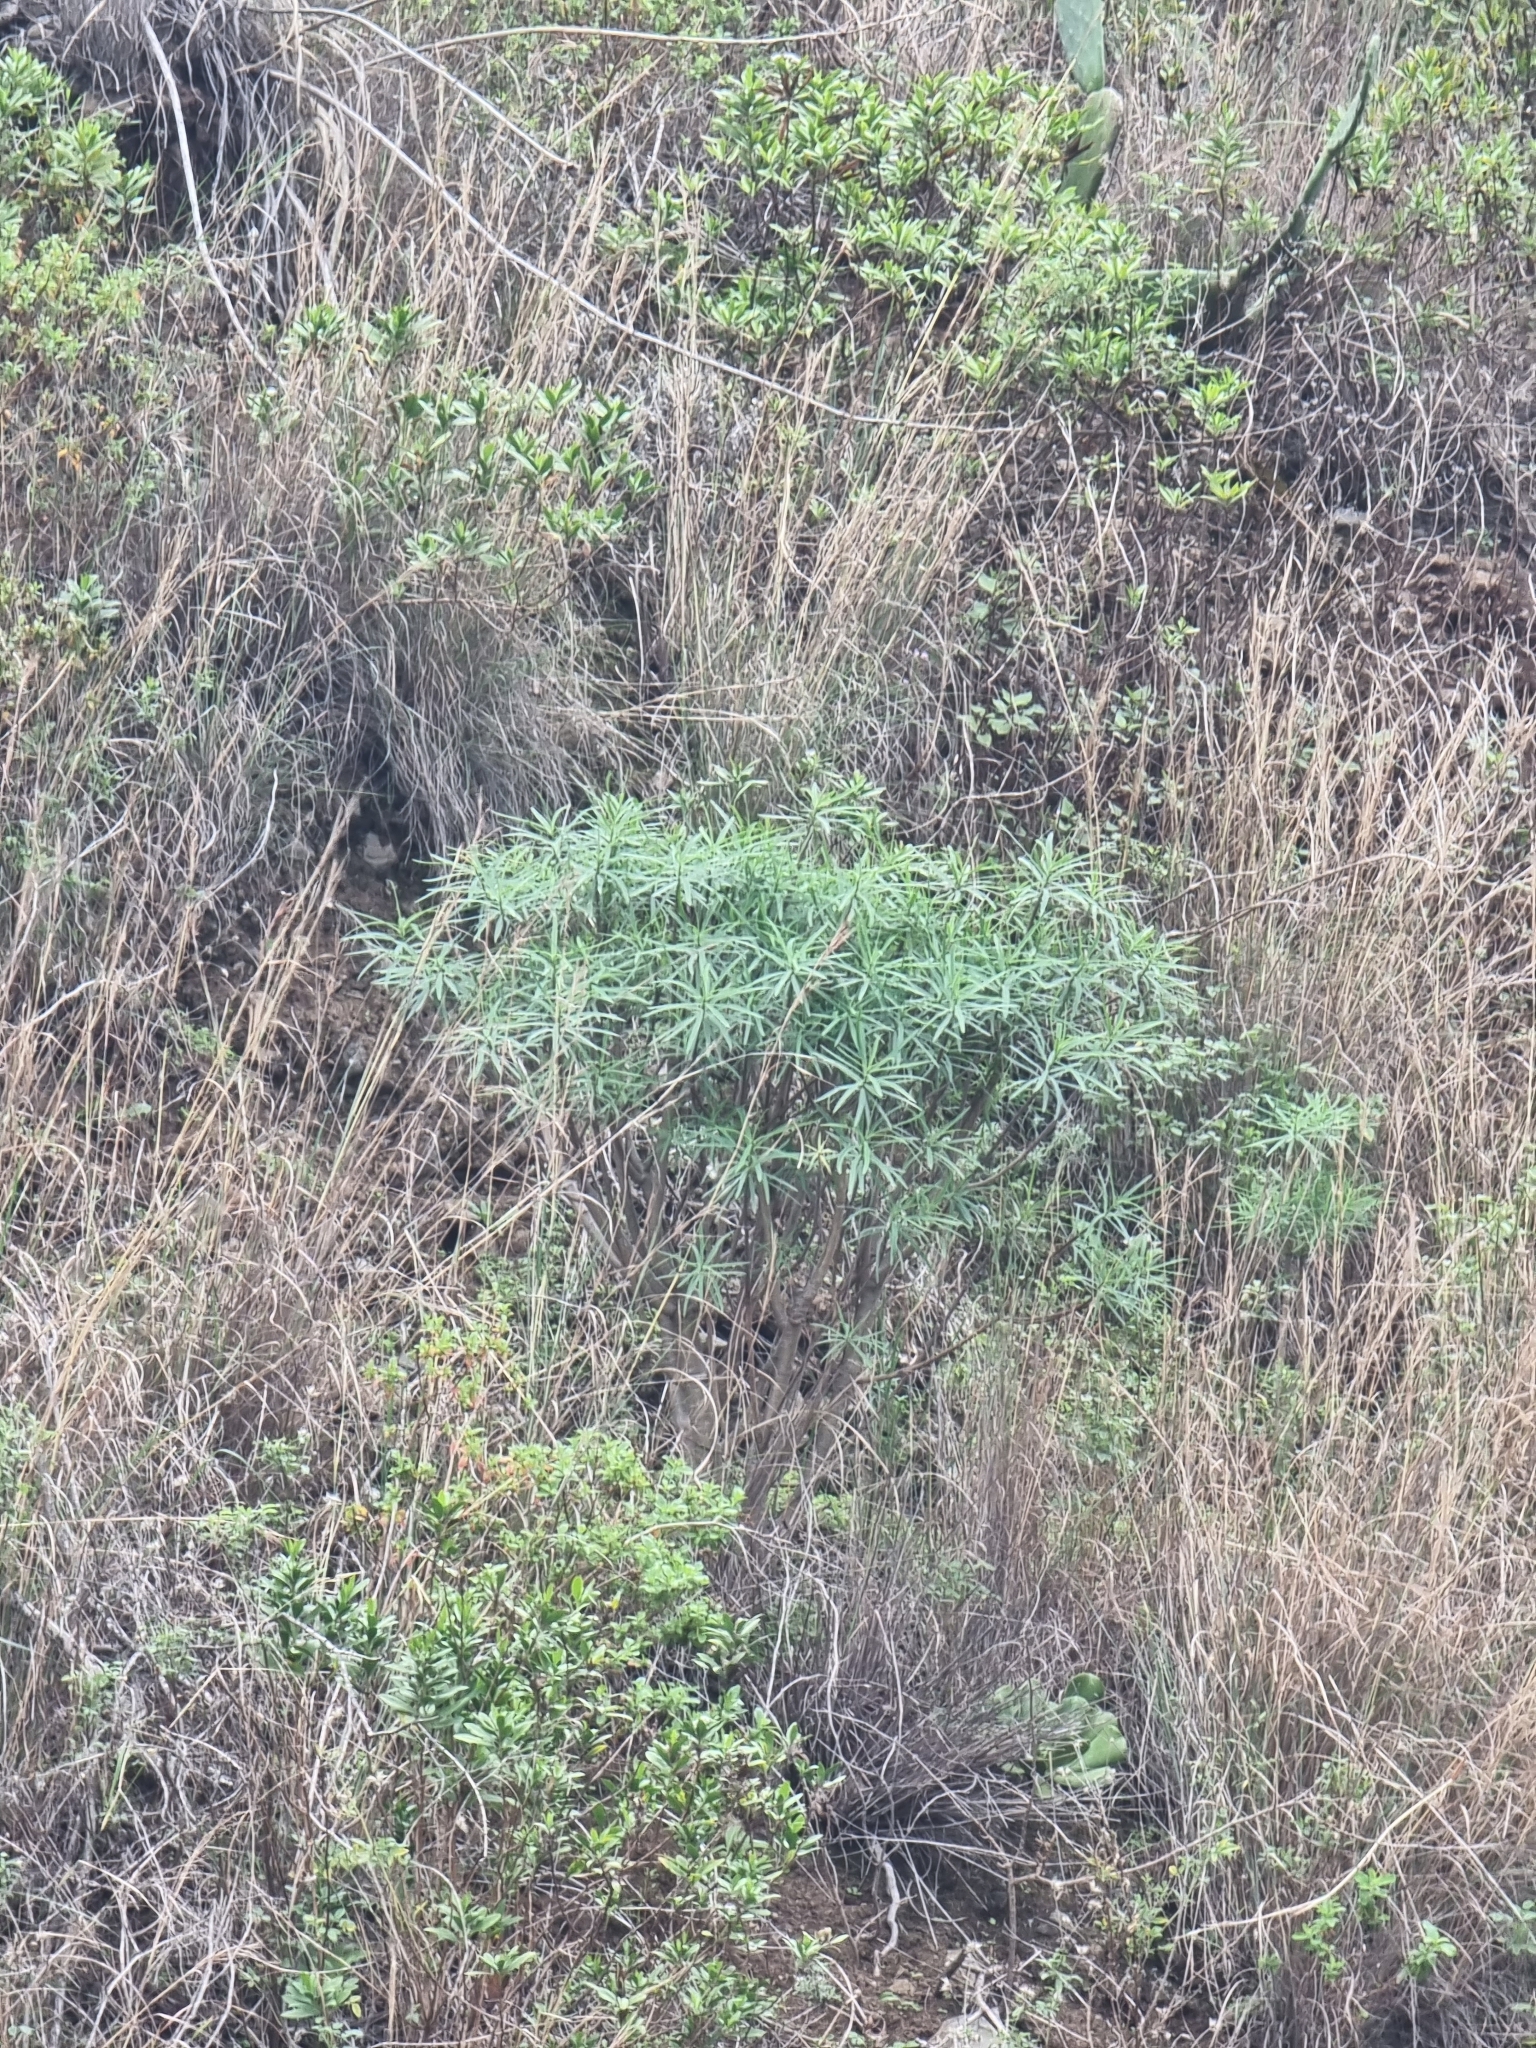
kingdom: Plantae
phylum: Tracheophyta
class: Magnoliopsida
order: Malpighiales
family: Euphorbiaceae
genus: Euphorbia
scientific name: Euphorbia piscatoria
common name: Fish-stunning spurge
